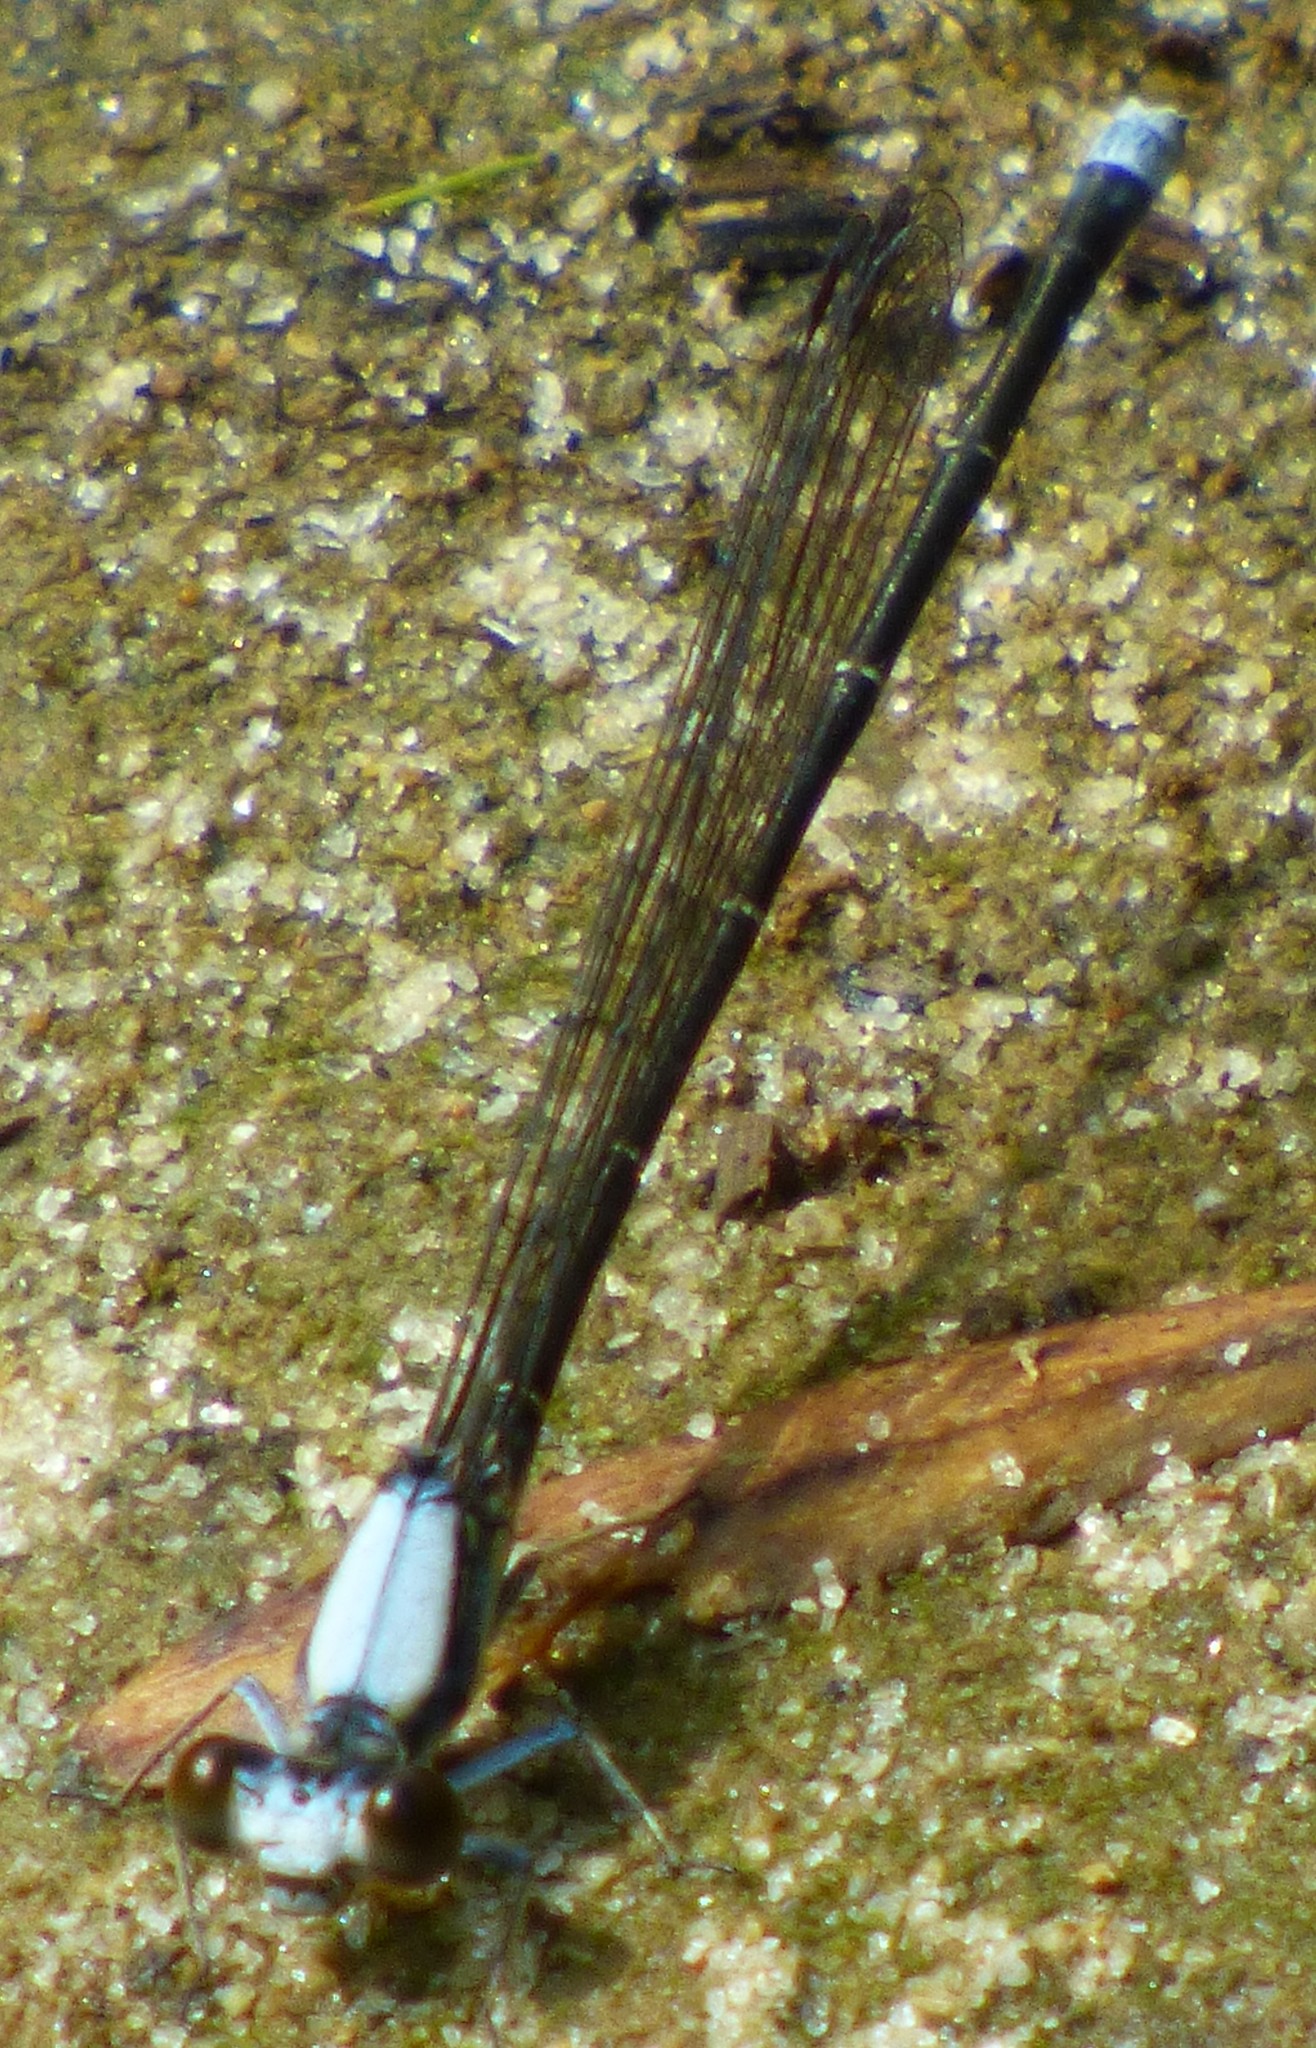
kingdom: Animalia
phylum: Arthropoda
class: Insecta
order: Odonata
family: Coenagrionidae
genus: Argia
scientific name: Argia moesta
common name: Powdered dancer
